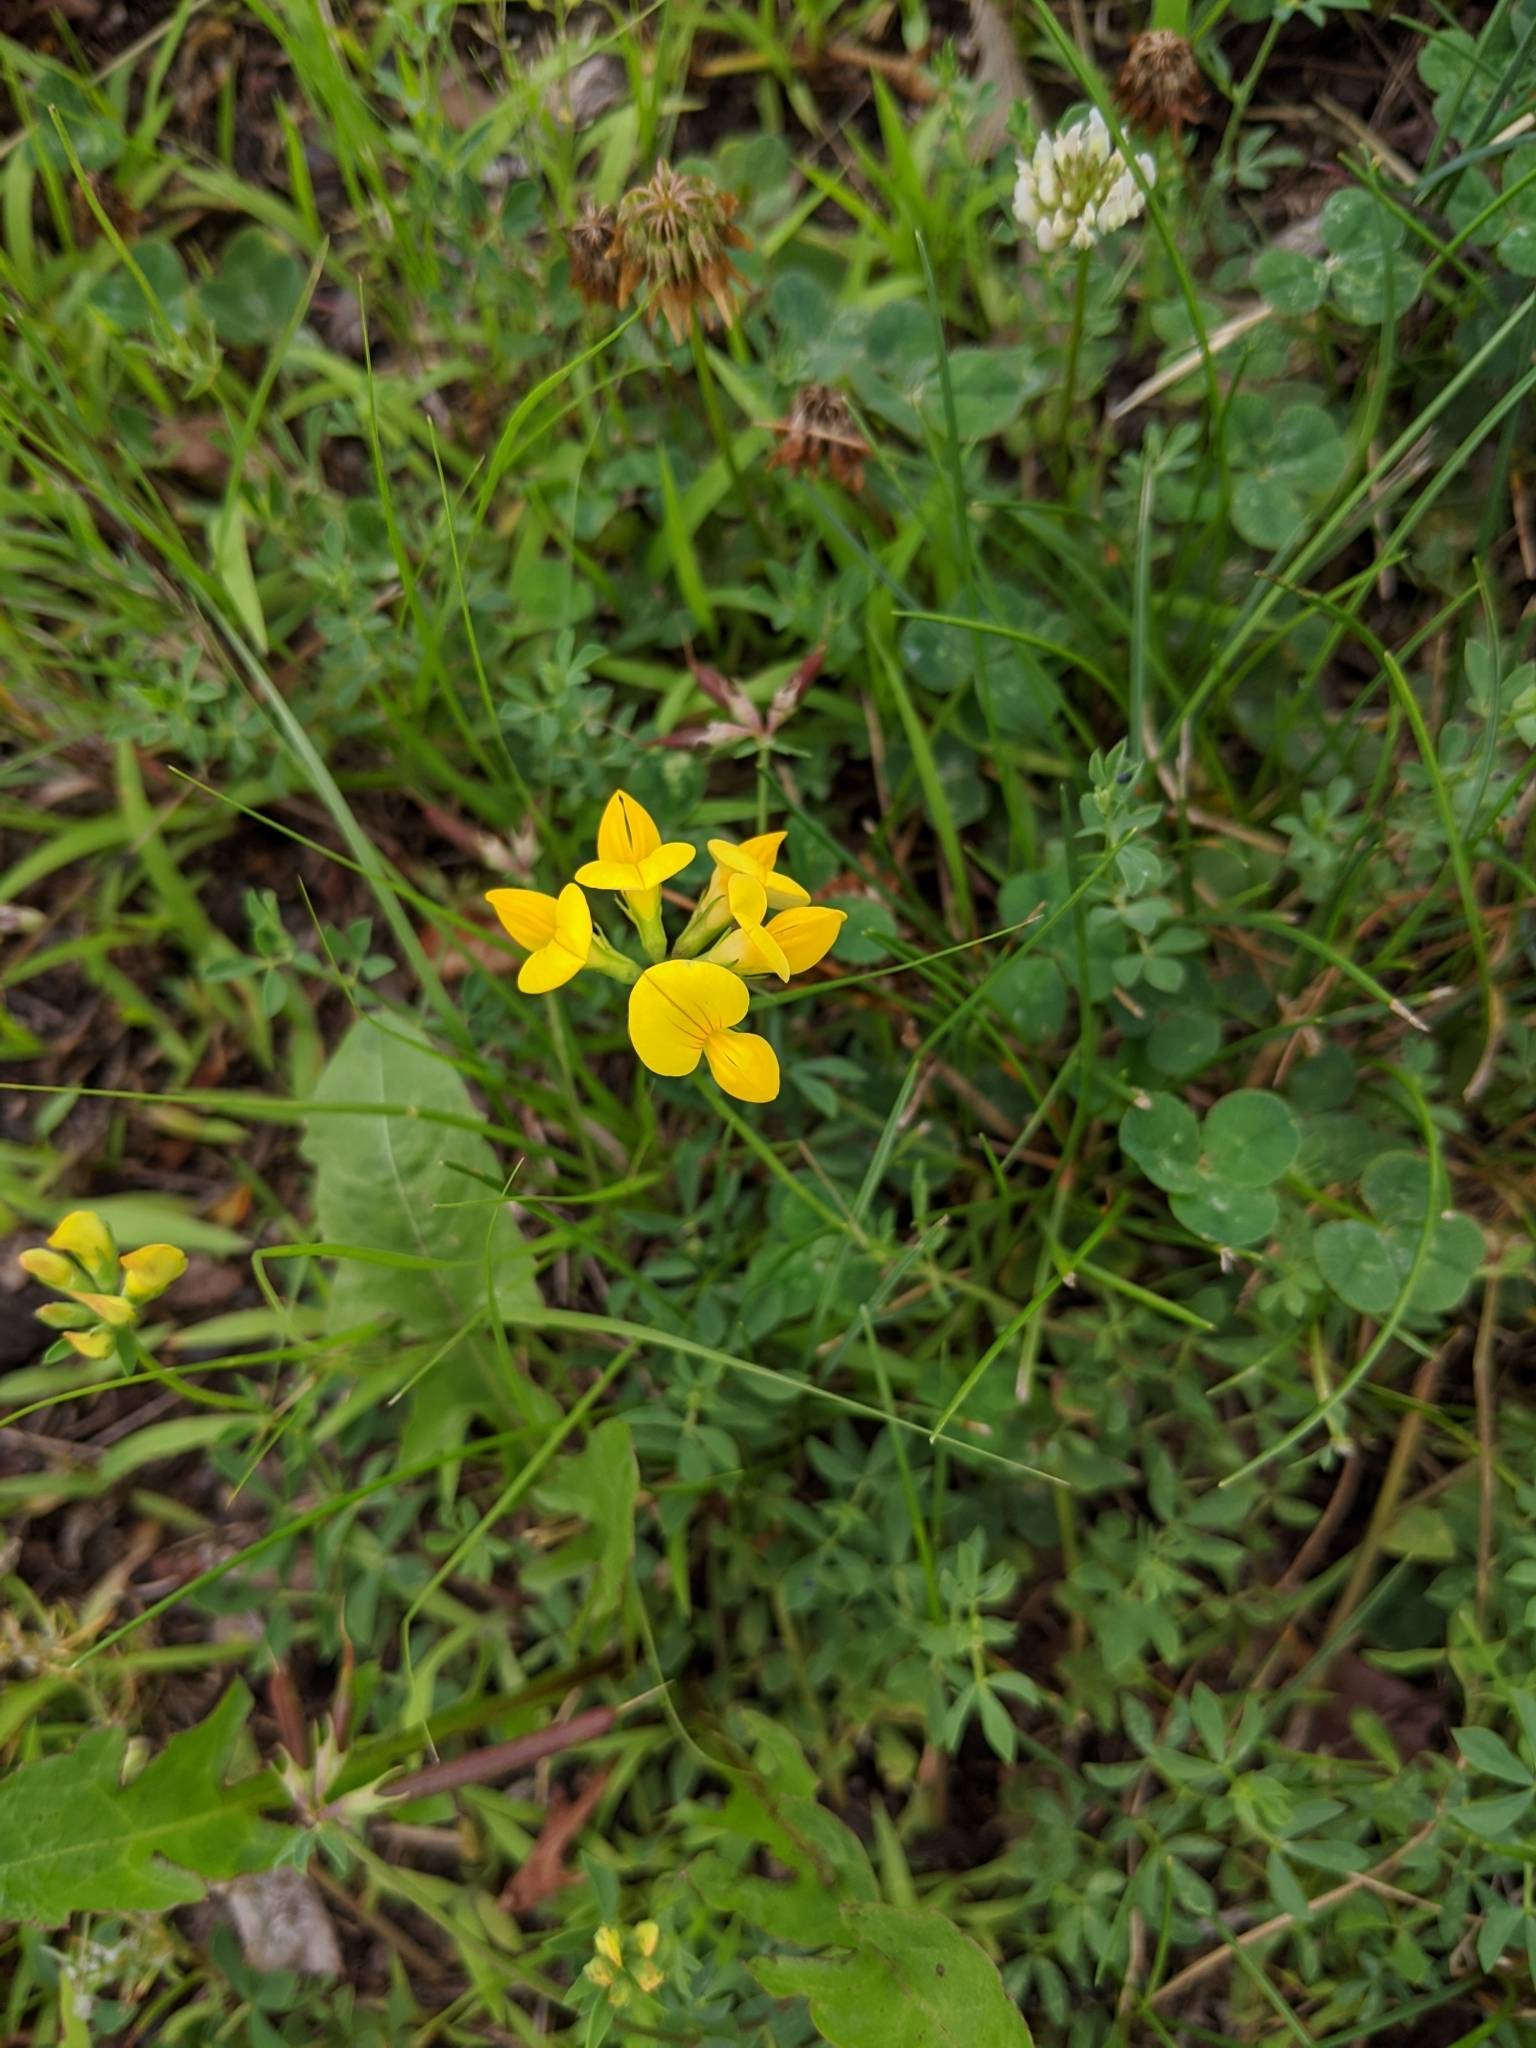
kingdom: Plantae
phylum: Tracheophyta
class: Magnoliopsida
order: Fabales
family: Fabaceae
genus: Lotus
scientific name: Lotus corniculatus
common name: Common bird's-foot-trefoil
